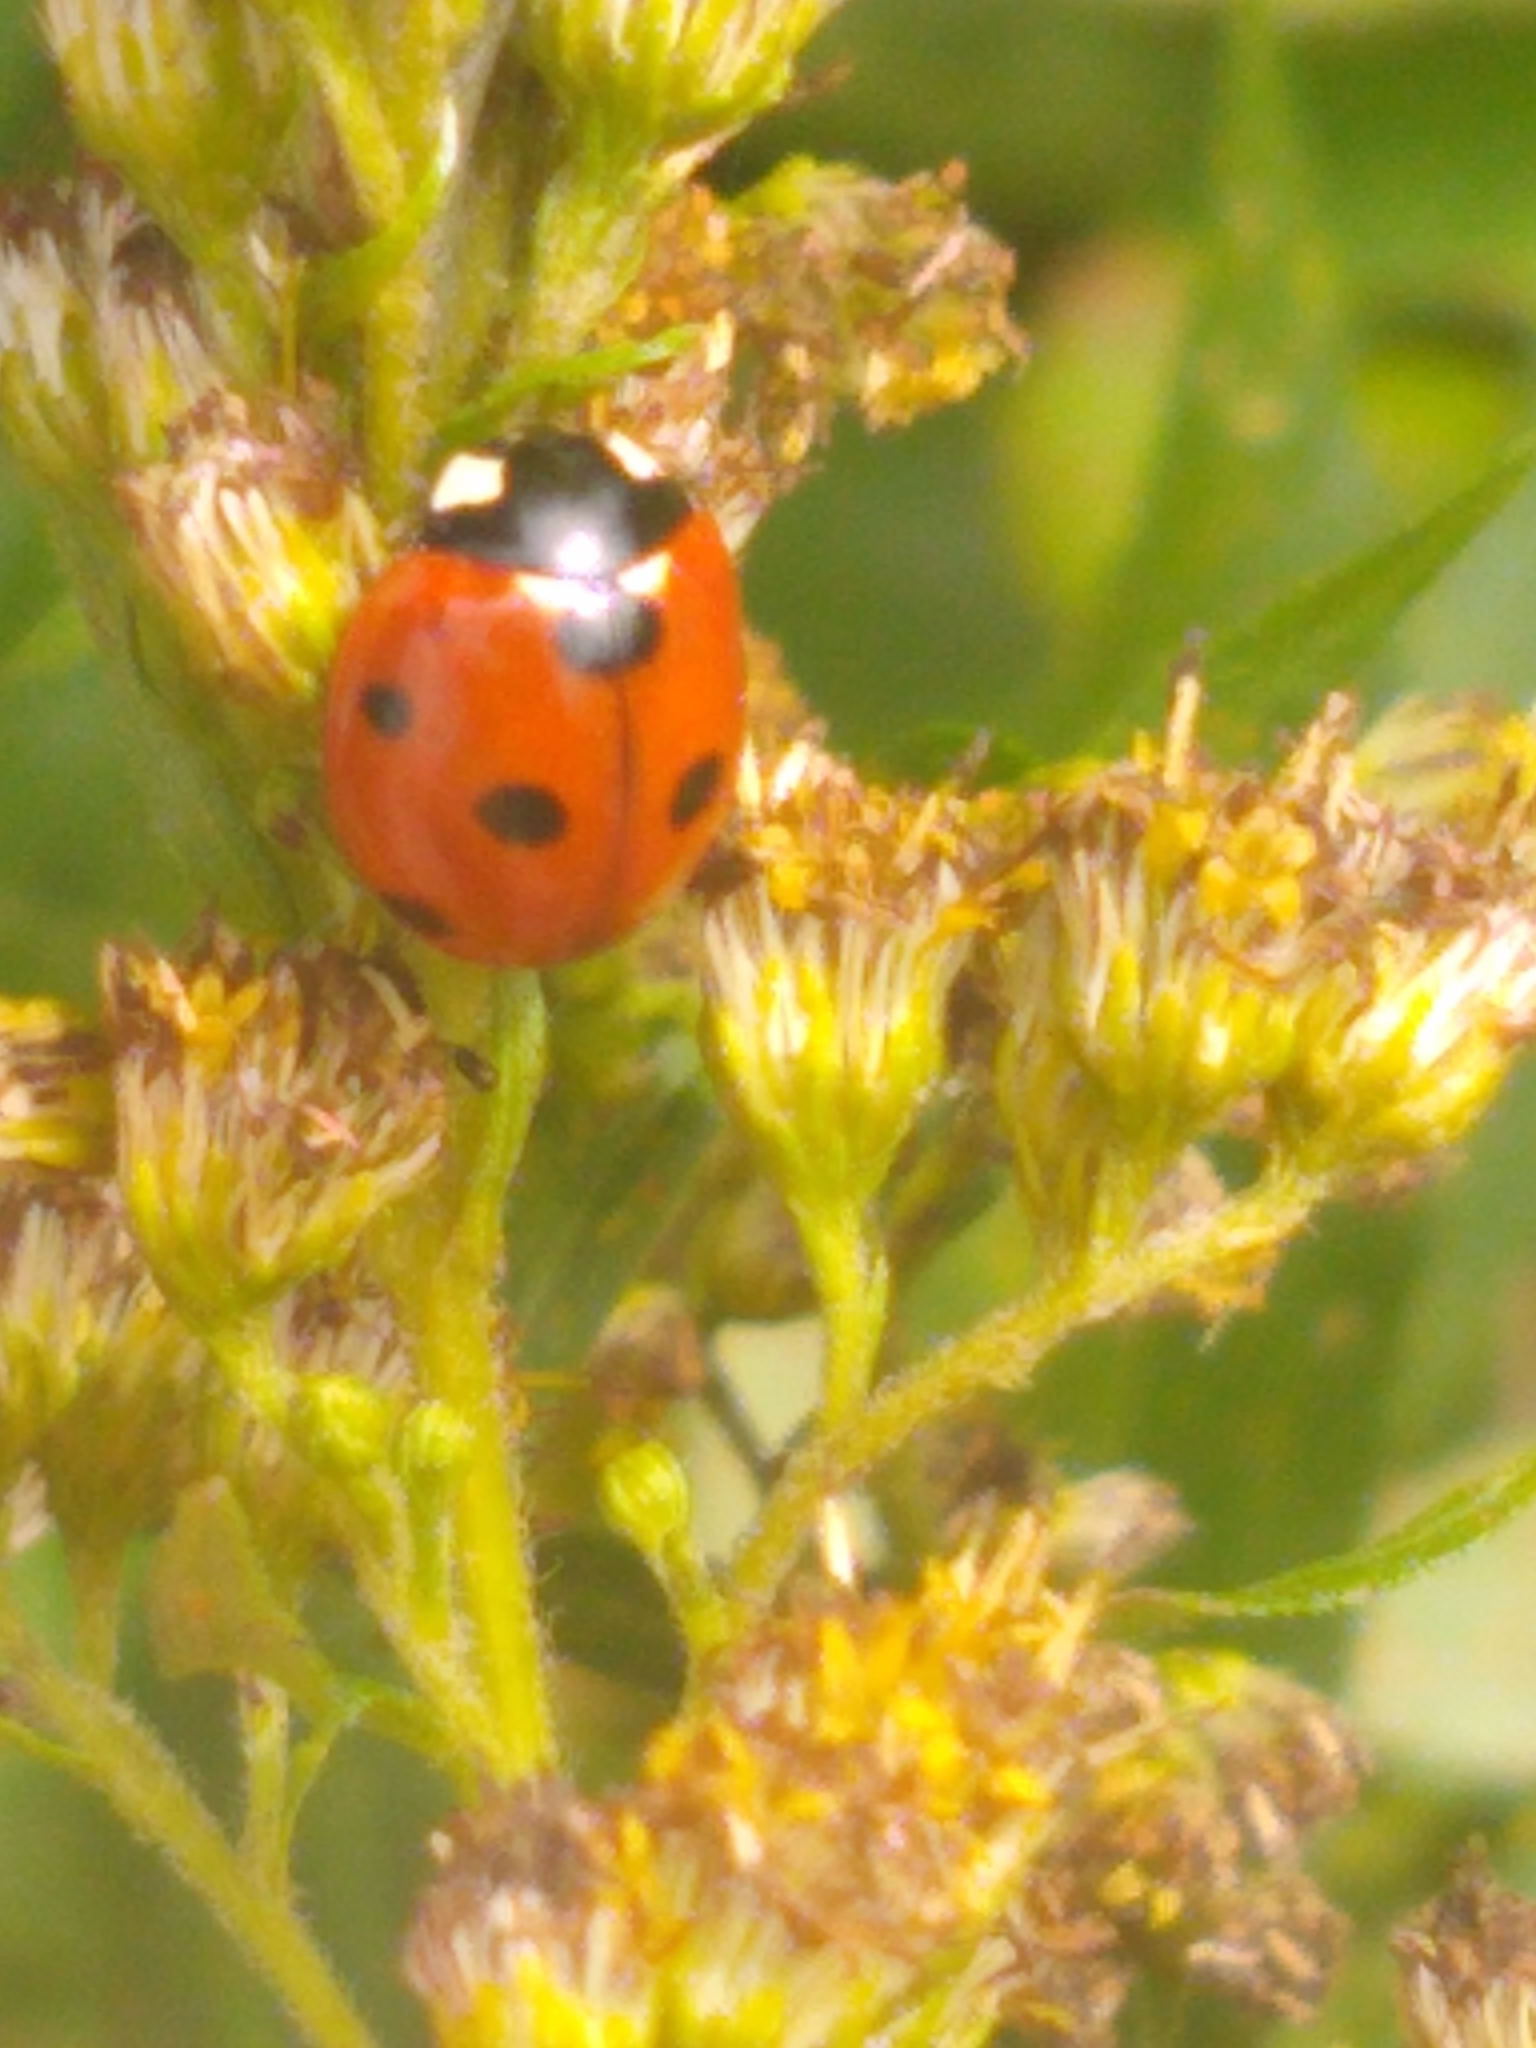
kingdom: Animalia
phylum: Arthropoda
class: Insecta
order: Coleoptera
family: Coccinellidae
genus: Coccinella
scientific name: Coccinella septempunctata
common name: Sevenspotted lady beetle
